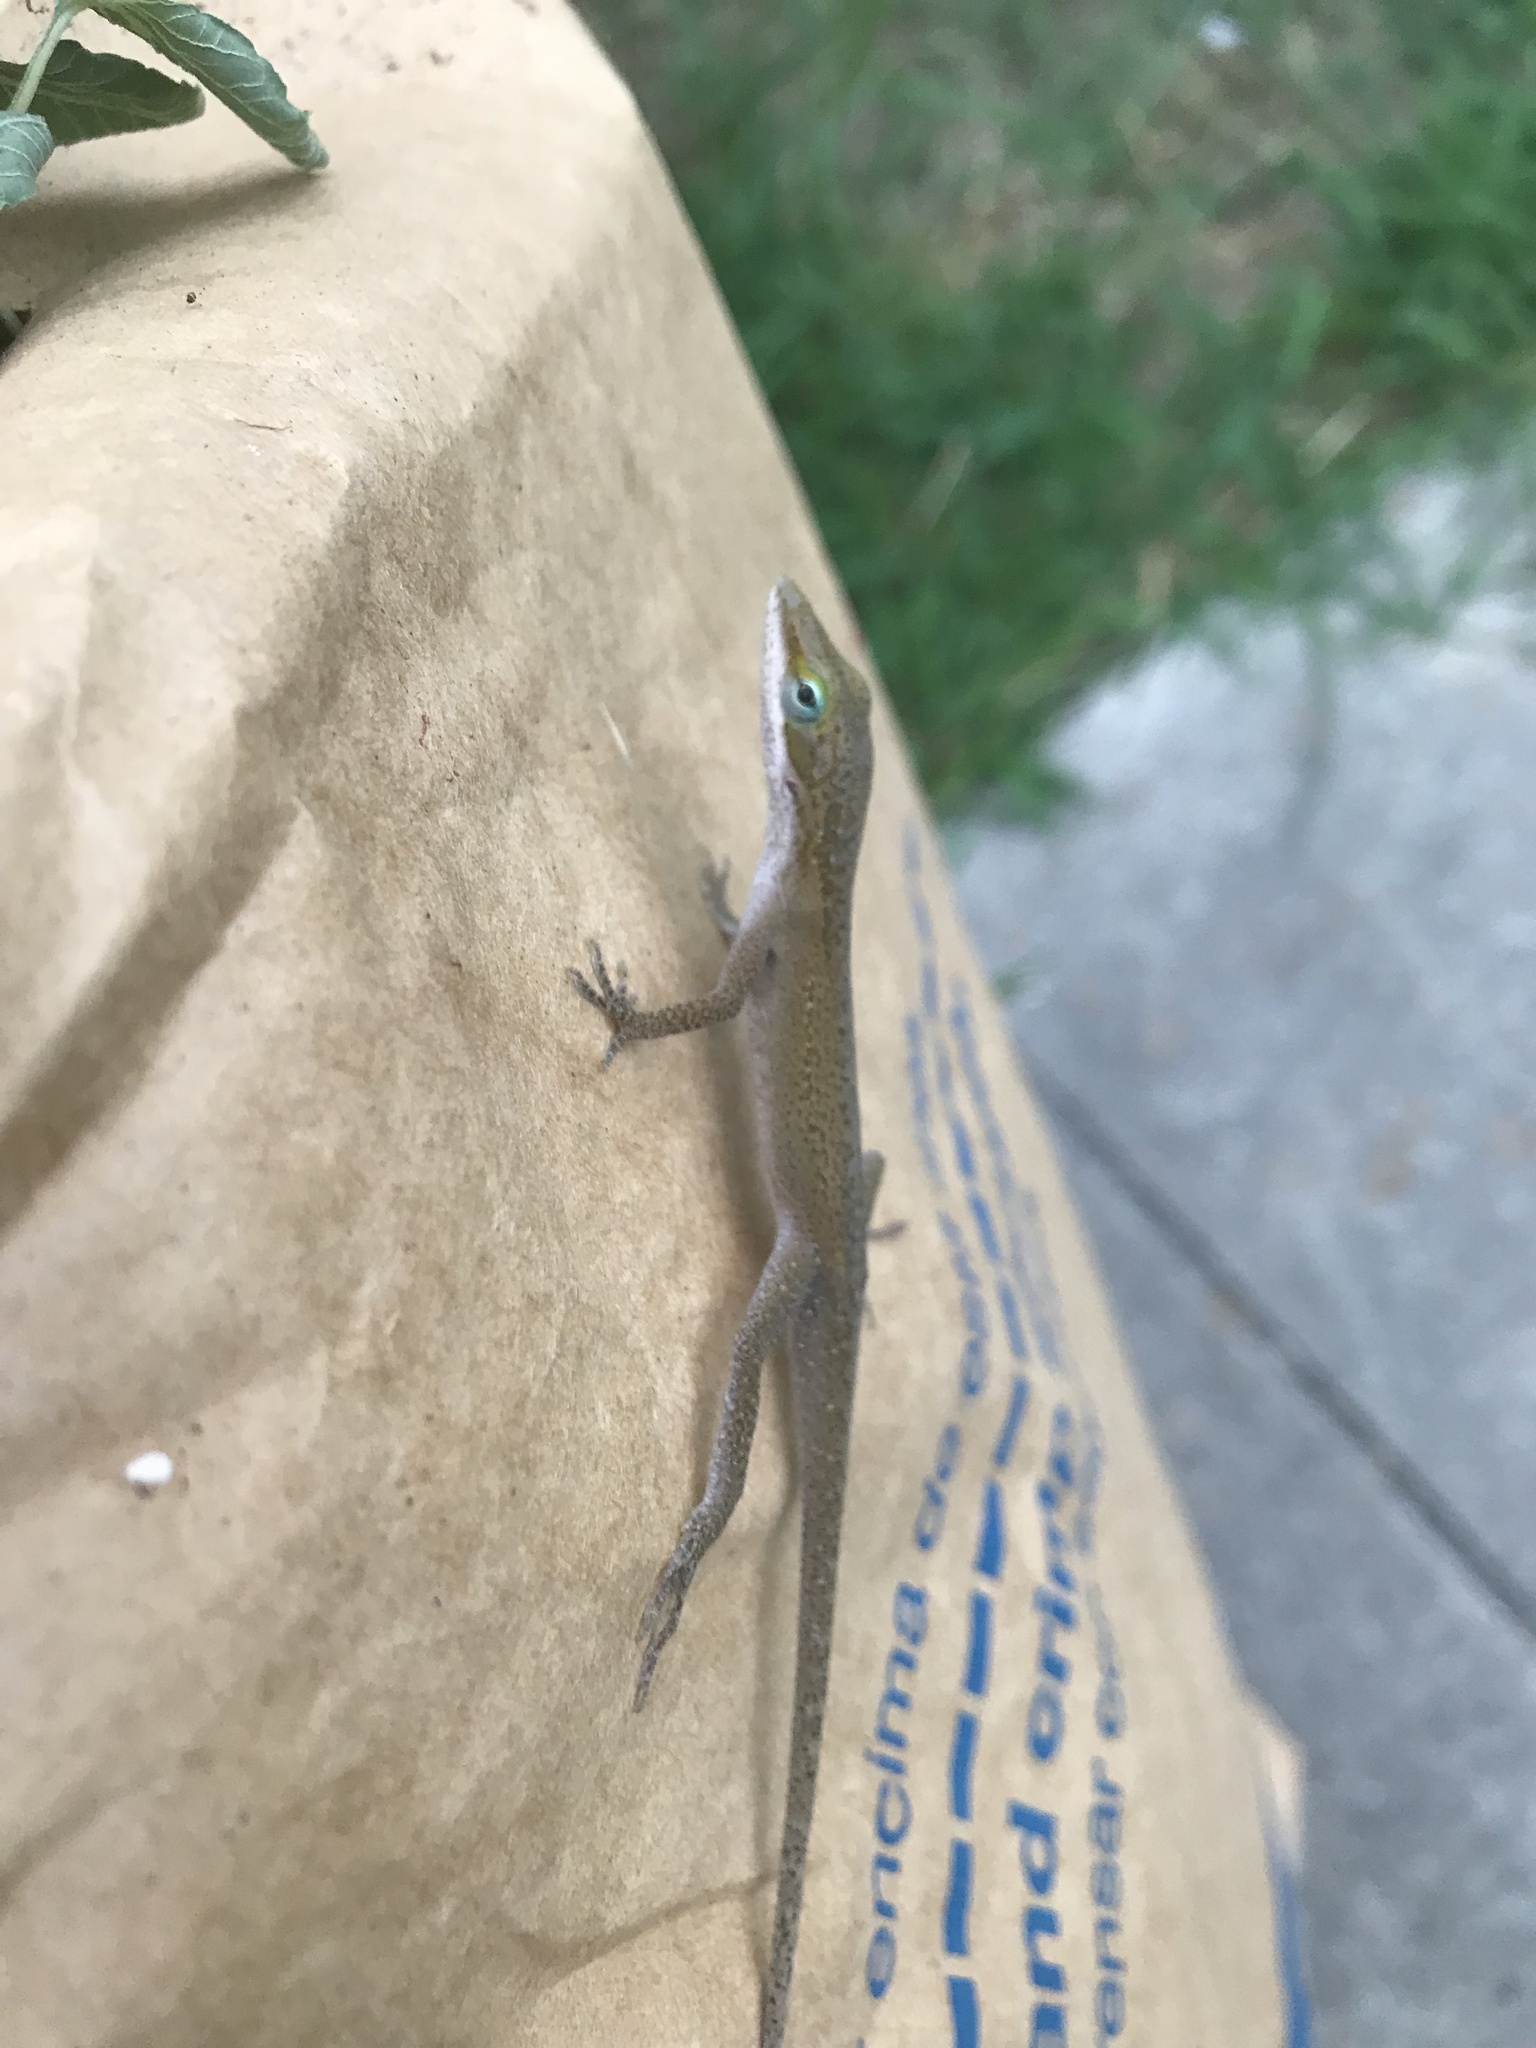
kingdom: Animalia
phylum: Chordata
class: Squamata
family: Dactyloidae
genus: Anolis
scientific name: Anolis carolinensis
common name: Green anole
